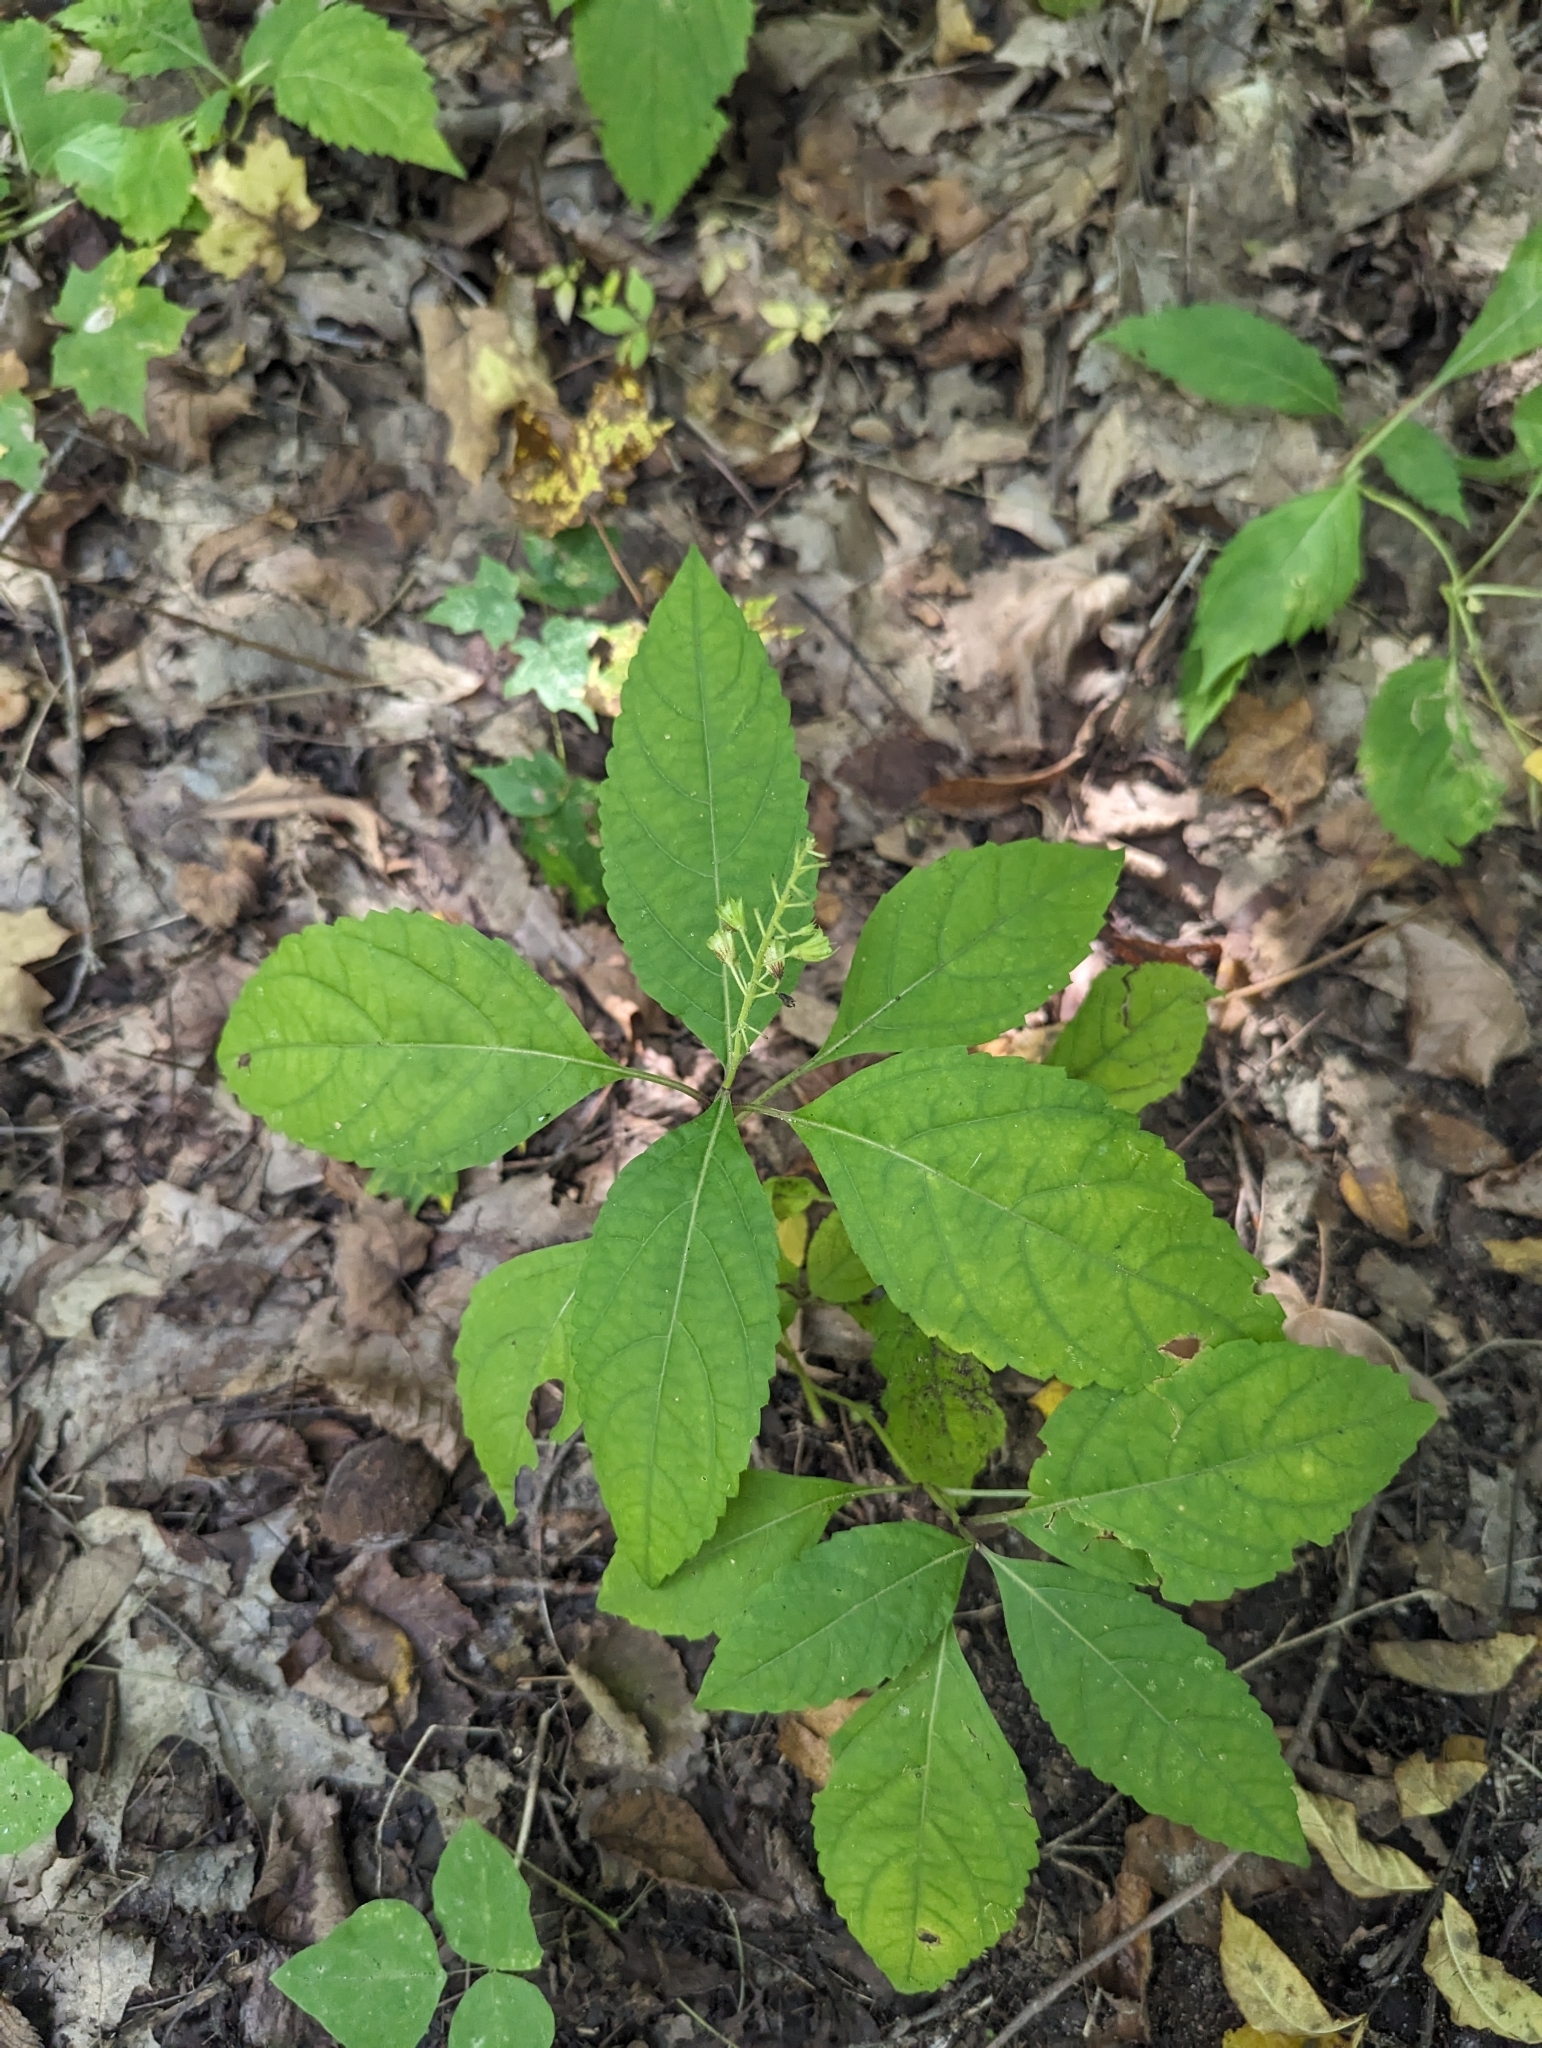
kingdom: Plantae
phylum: Tracheophyta
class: Magnoliopsida
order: Lamiales
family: Lamiaceae
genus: Collinsonia
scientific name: Collinsonia canadensis
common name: Northern horsebalm
